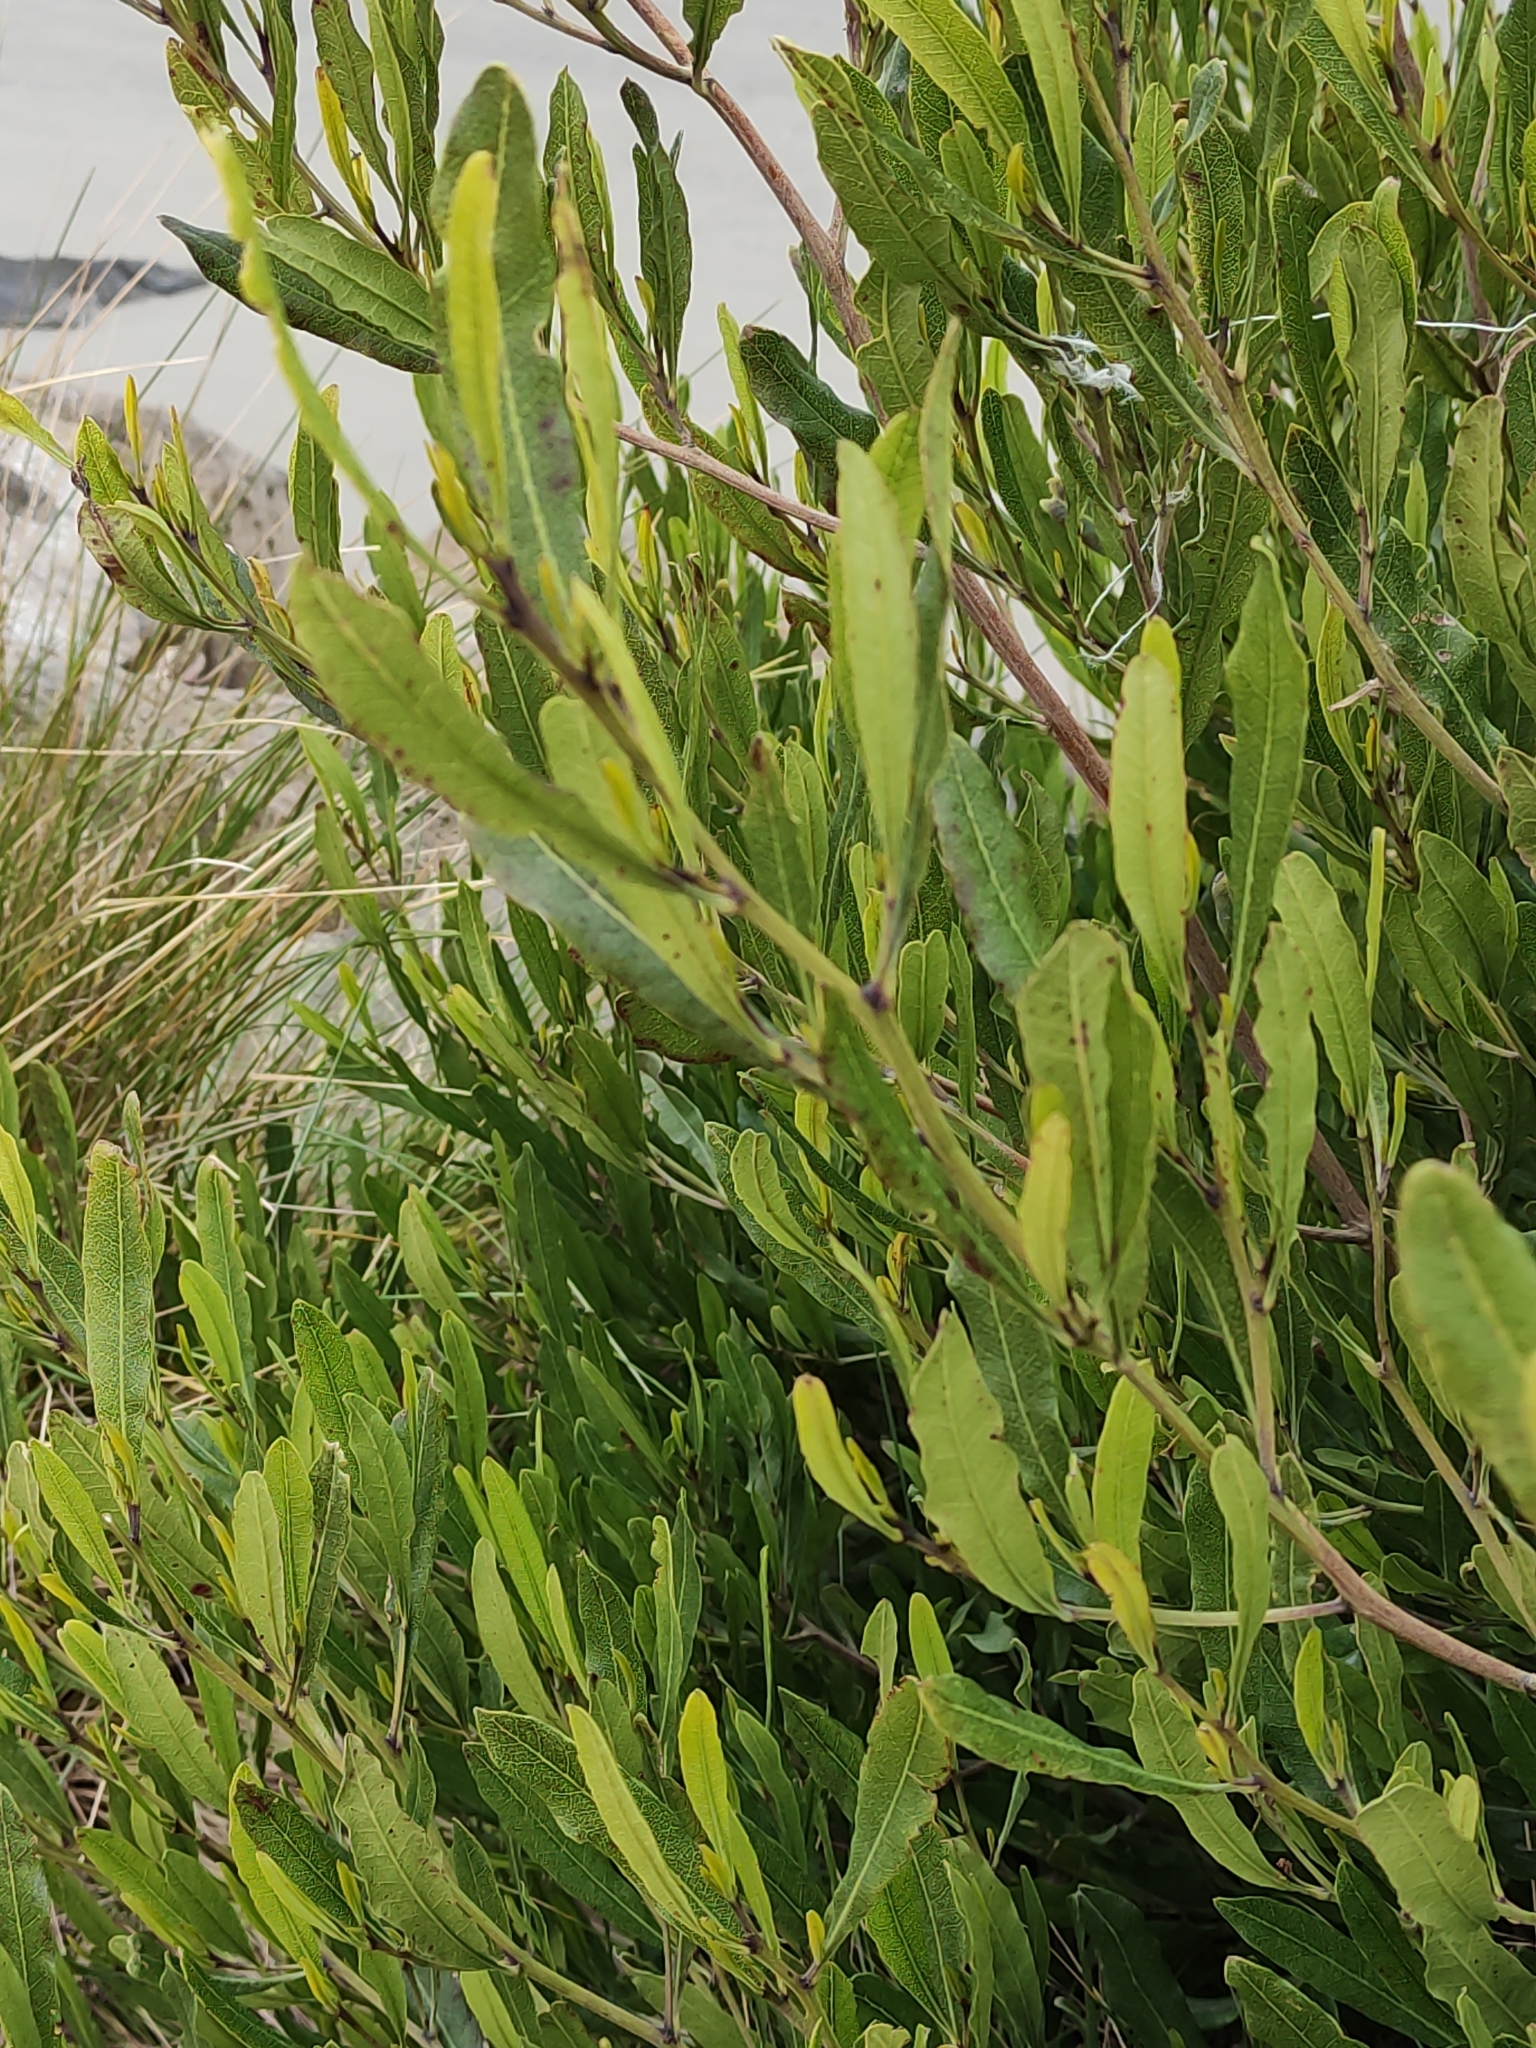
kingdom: Plantae
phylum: Tracheophyta
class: Magnoliopsida
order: Sapindales
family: Sapindaceae
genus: Dodonaea
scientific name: Dodonaea viscosa
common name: Hopbush
